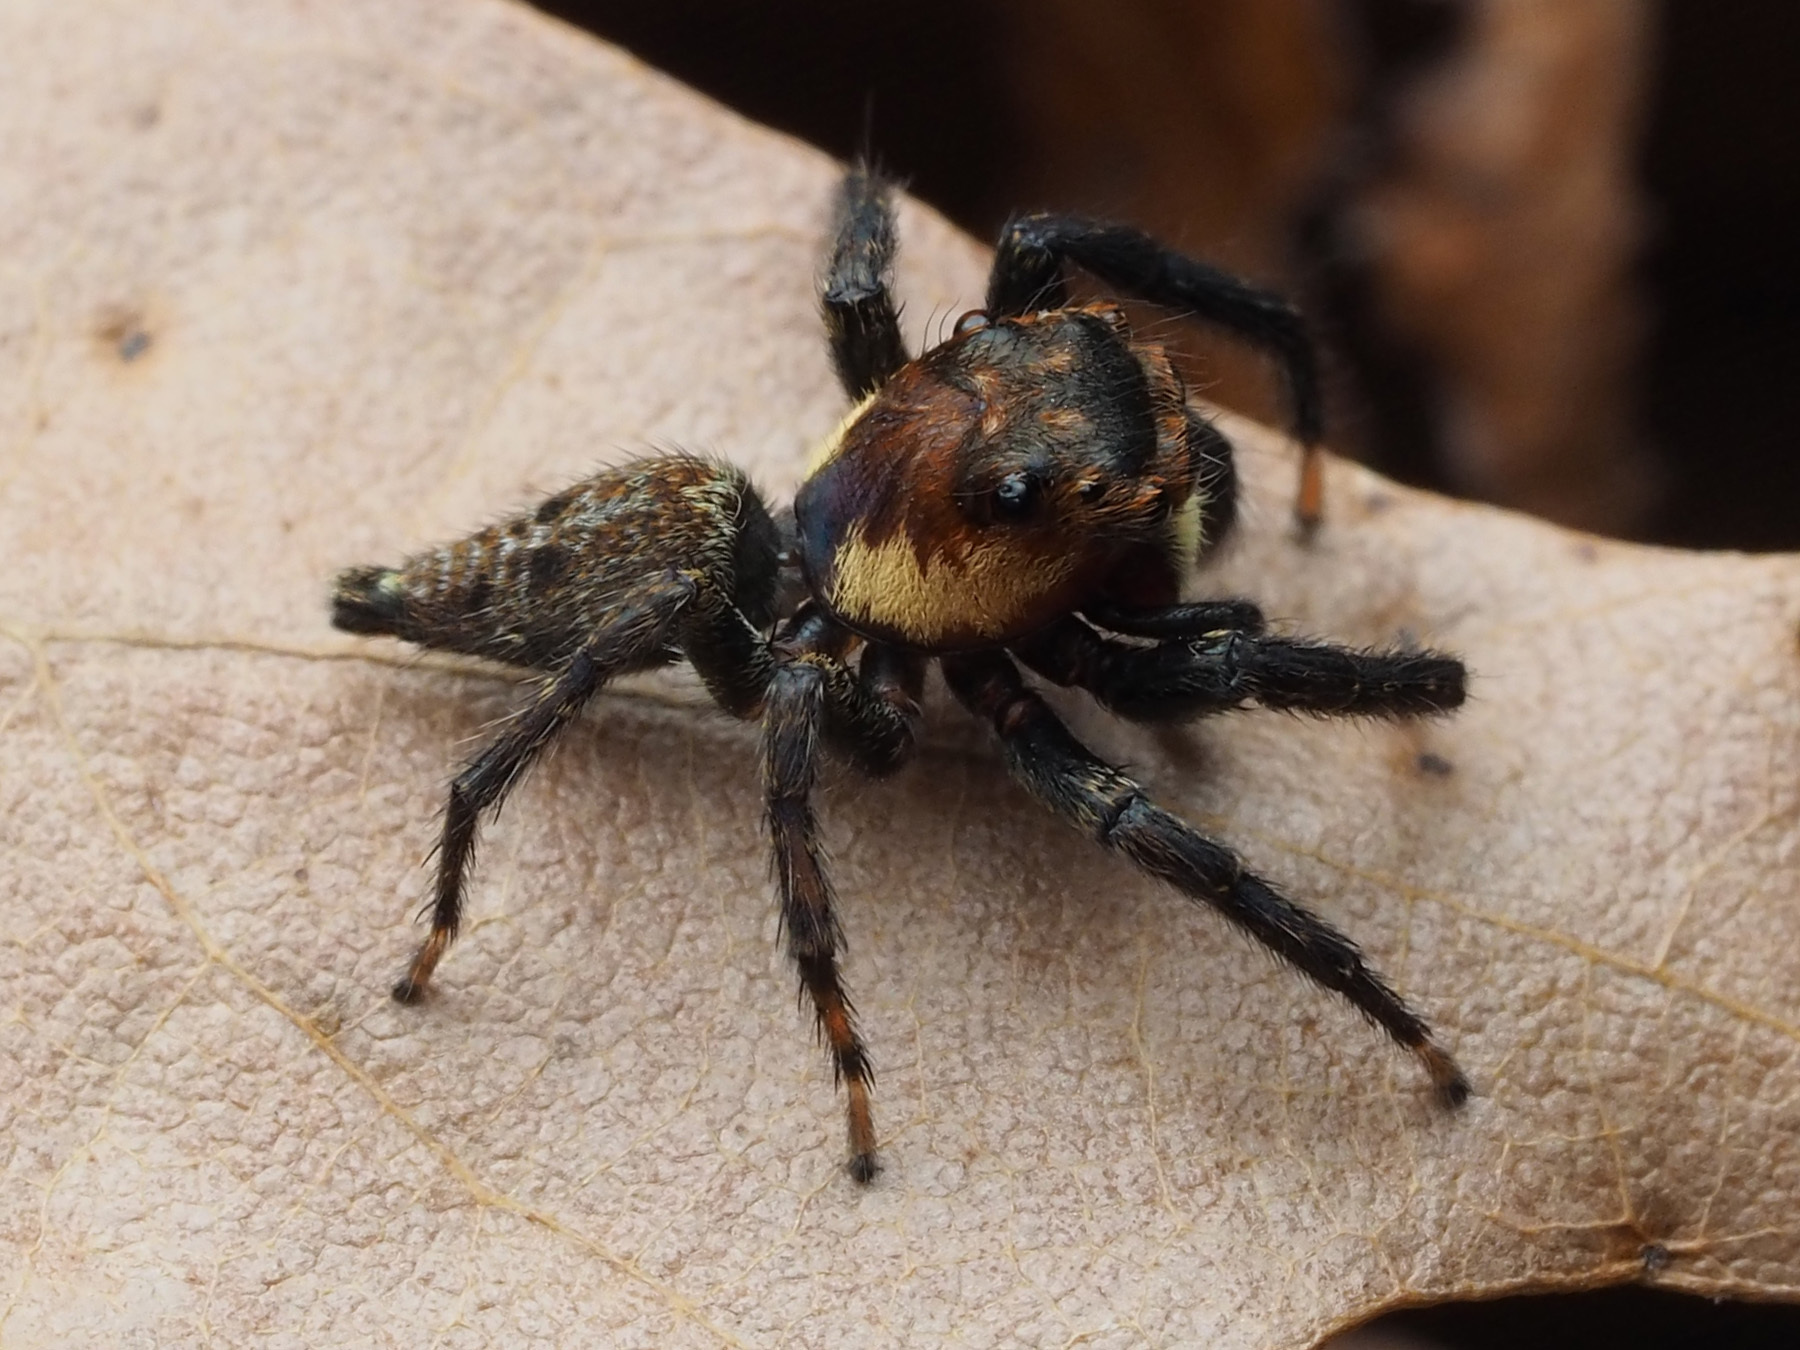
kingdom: Animalia
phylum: Arthropoda
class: Arachnida
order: Araneae
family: Salticidae
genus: Triggella
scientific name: Triggella infuscata
